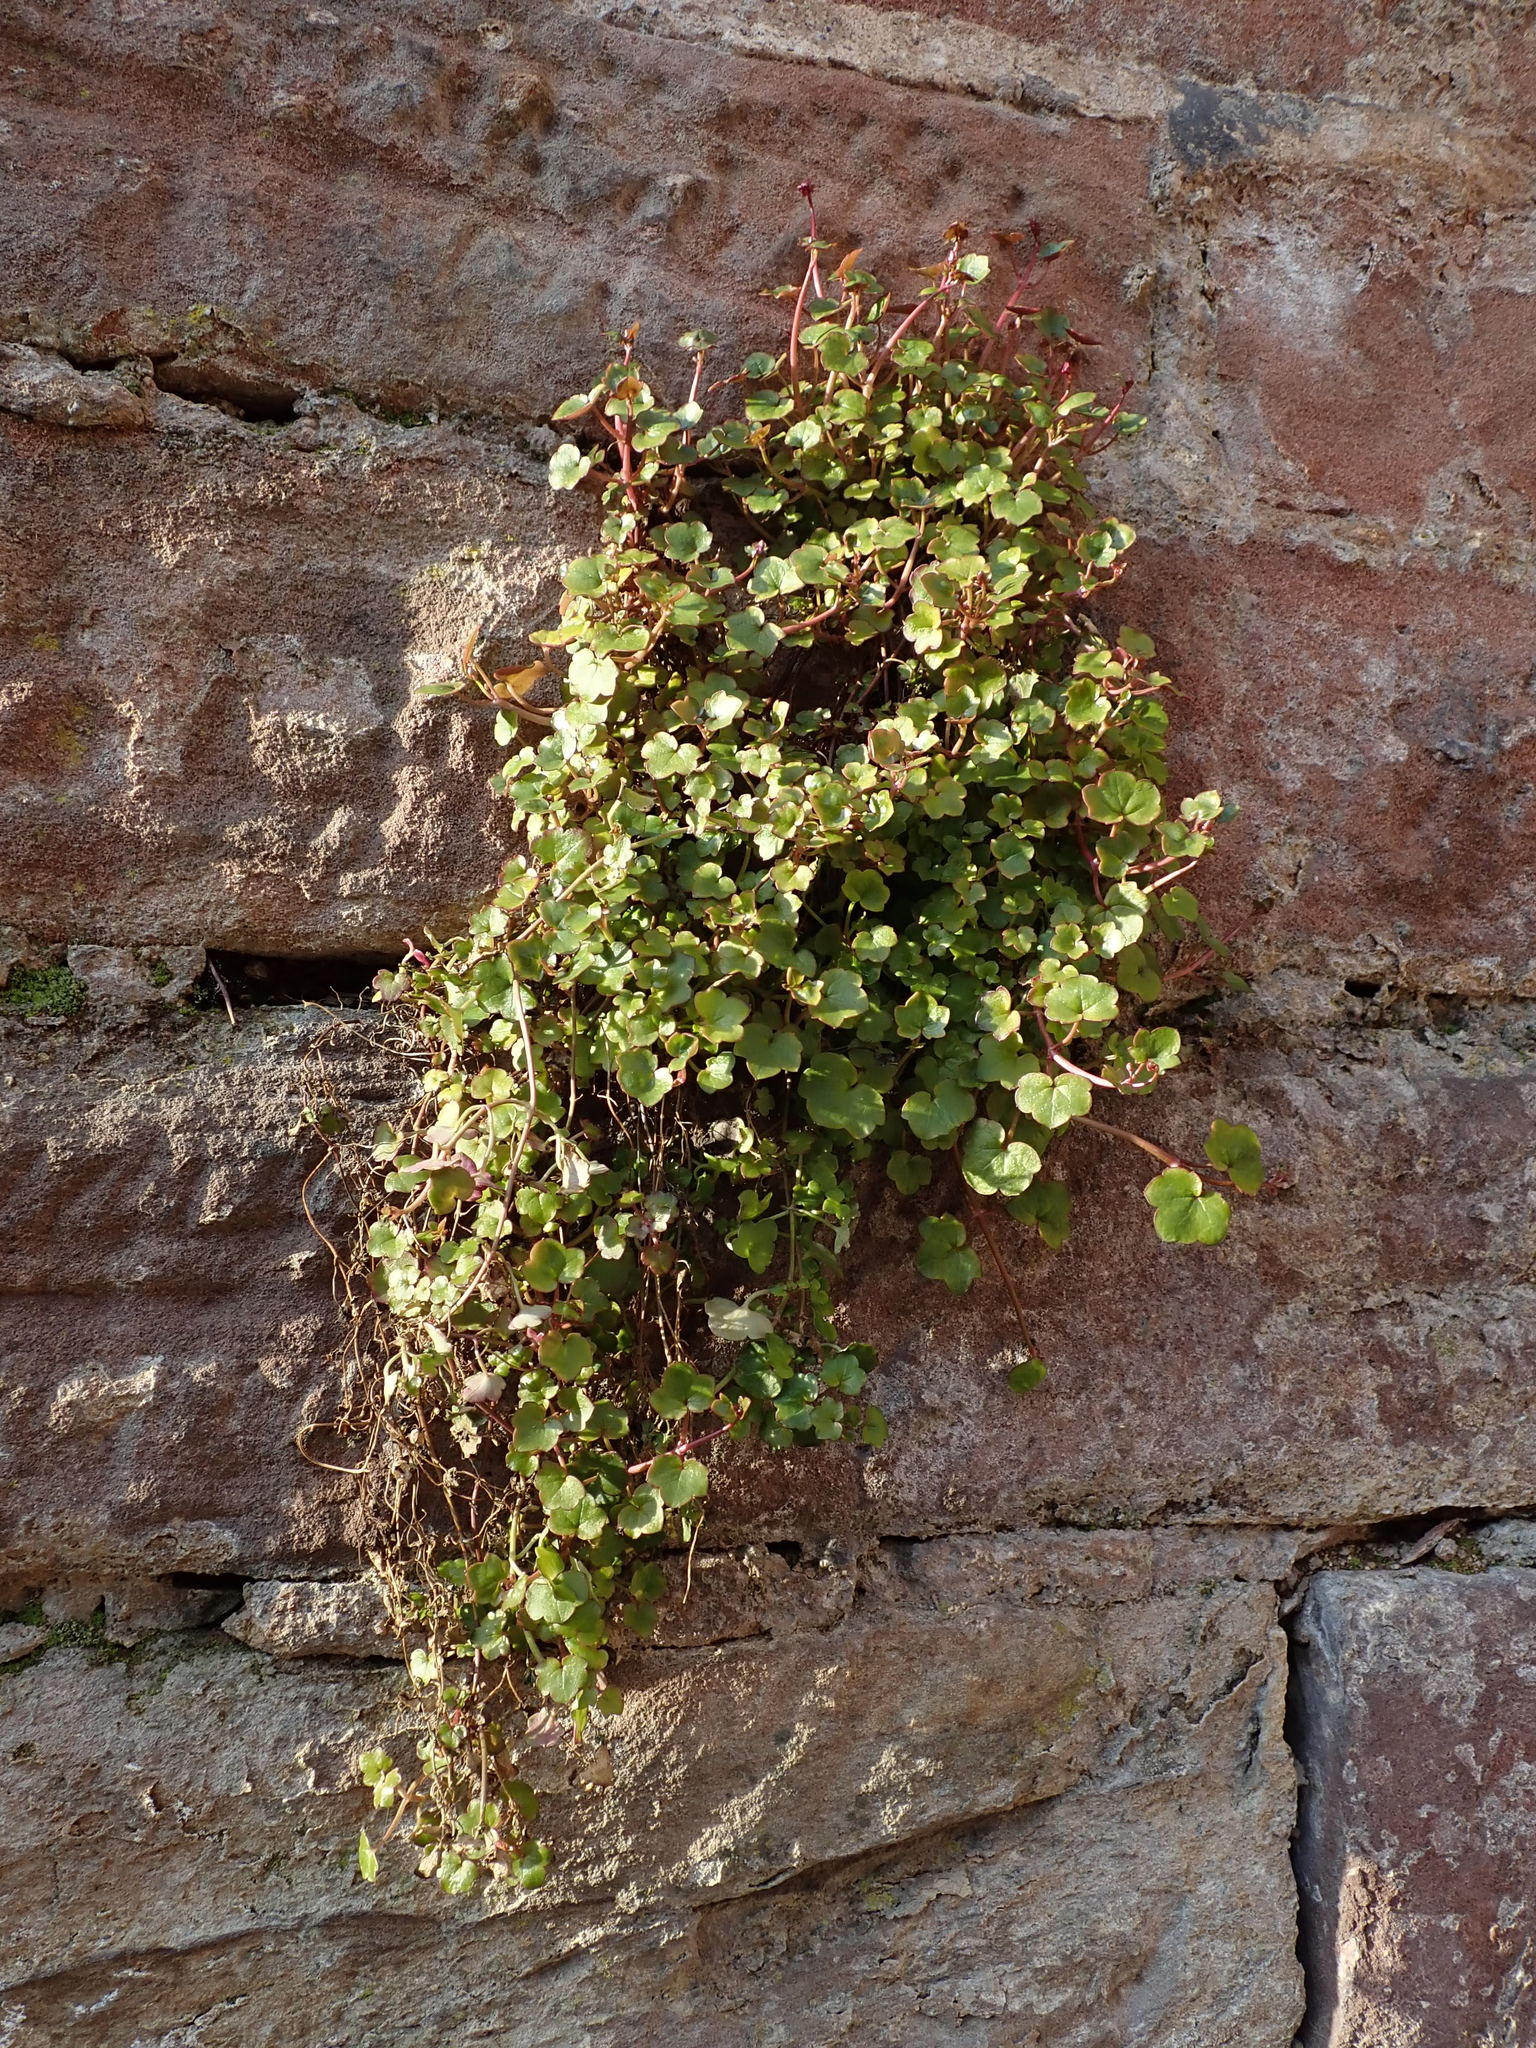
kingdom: Plantae
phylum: Tracheophyta
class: Magnoliopsida
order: Lamiales
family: Plantaginaceae
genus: Cymbalaria
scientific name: Cymbalaria muralis
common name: Ivy-leaved toadflax
